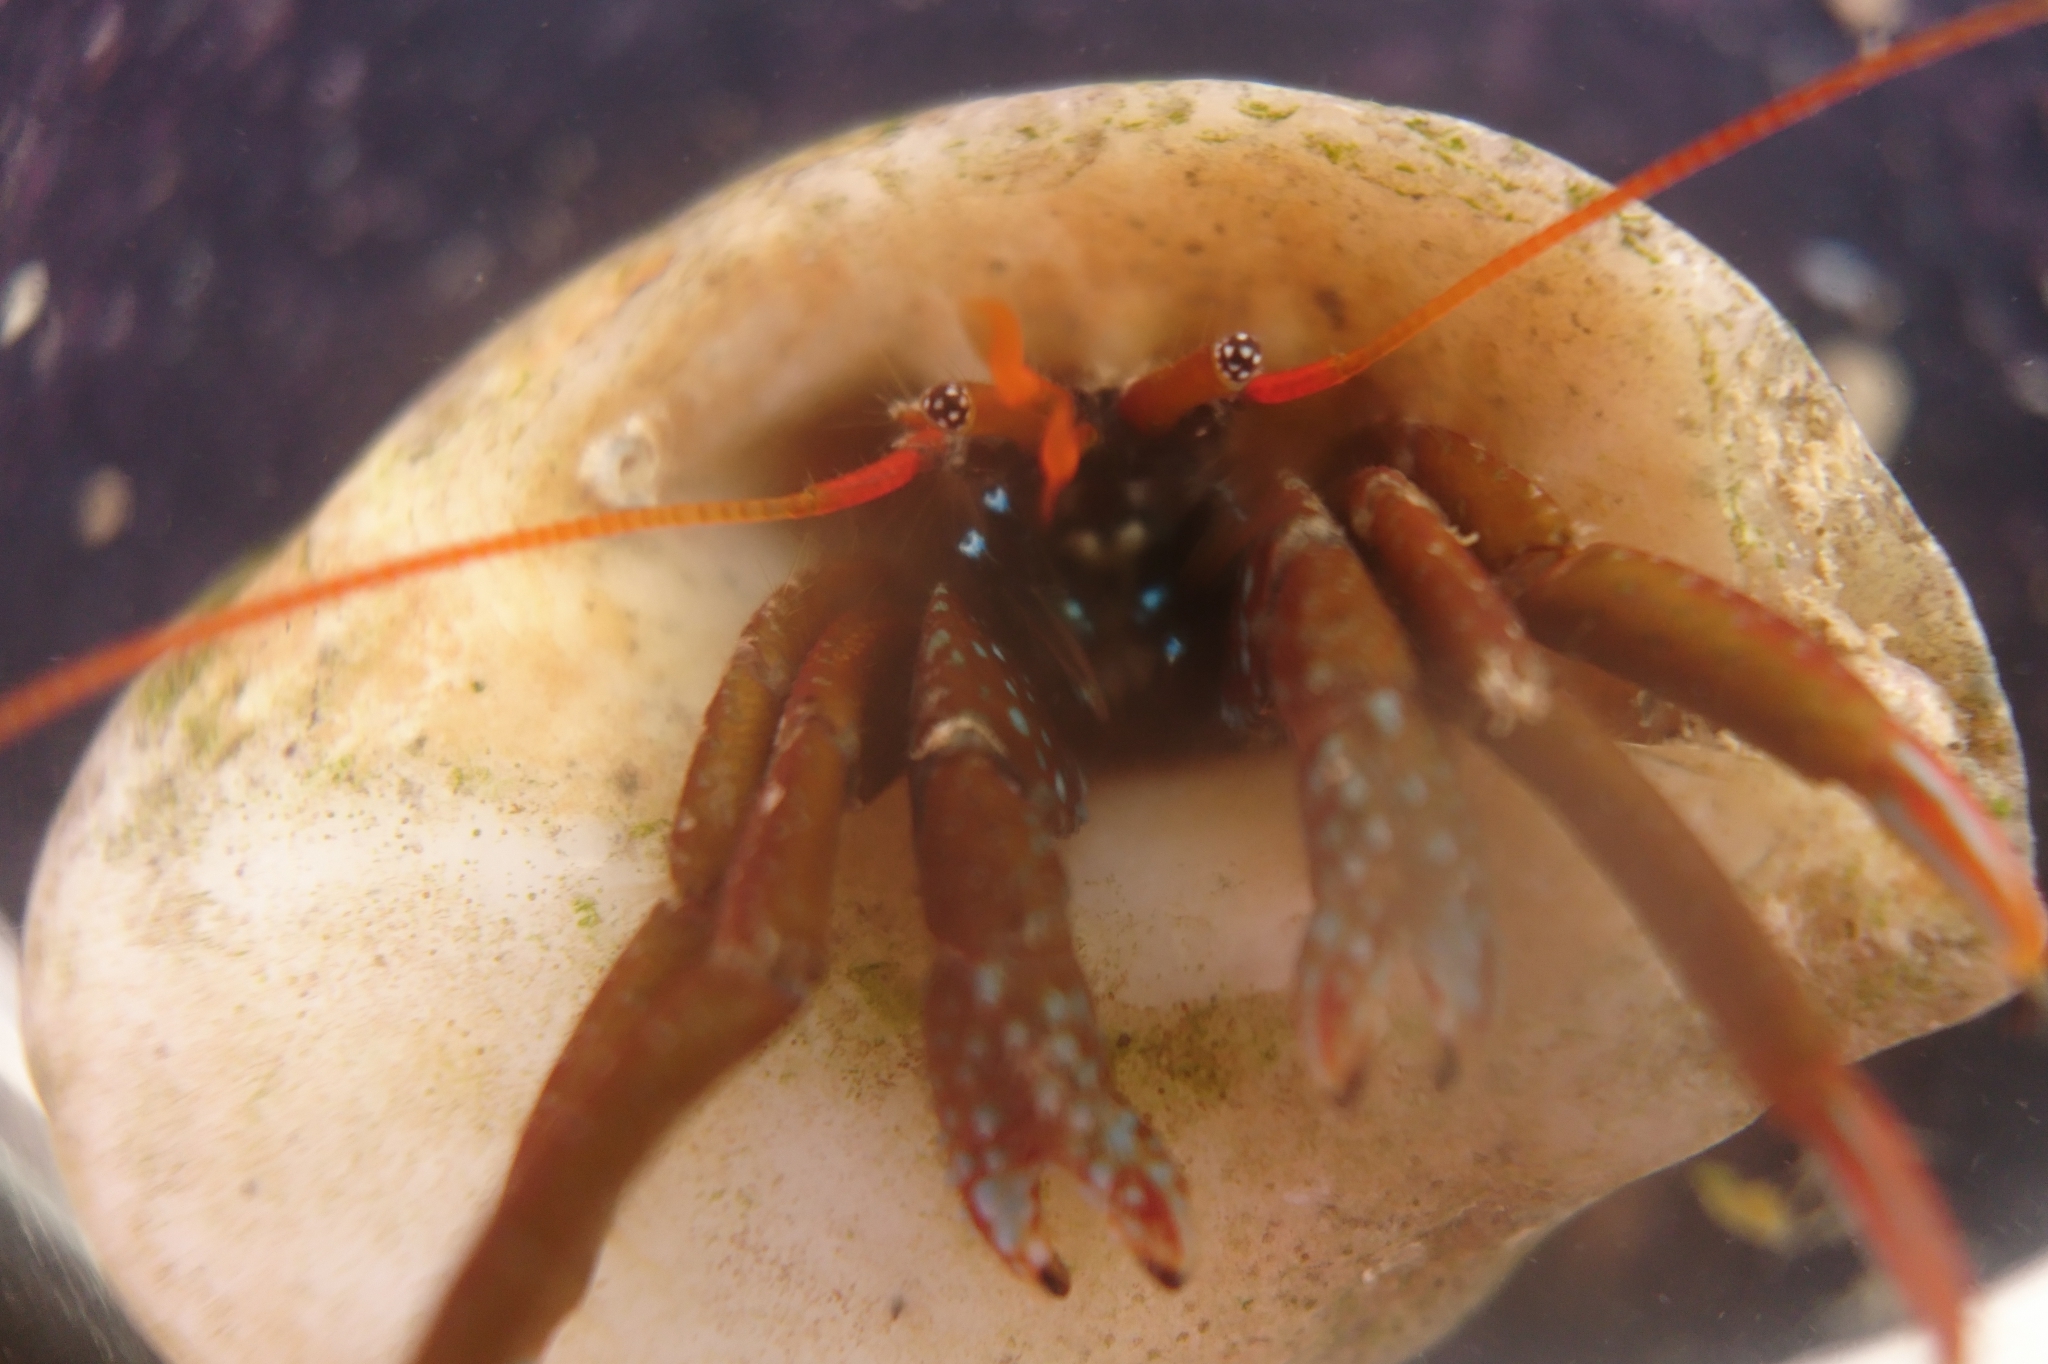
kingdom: Animalia
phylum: Arthropoda
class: Malacostraca
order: Decapoda
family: Diogenidae
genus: Clibanarius
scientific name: Clibanarius erythropus
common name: Hermit crab
